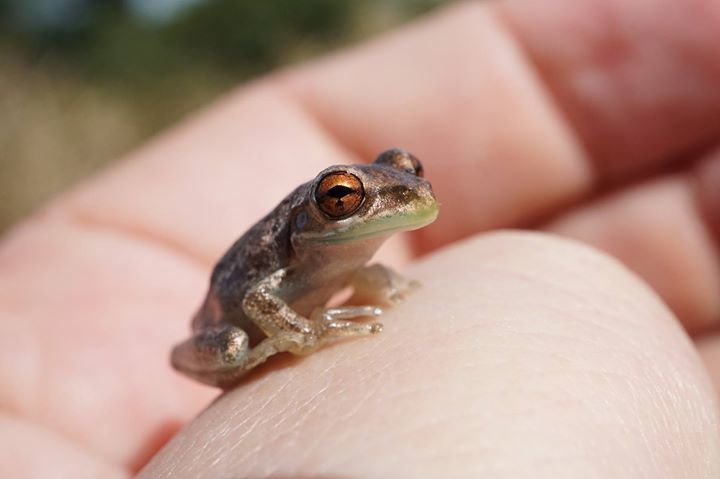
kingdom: Animalia
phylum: Chordata
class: Amphibia
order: Anura
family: Hylidae
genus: Osteopilus
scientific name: Osteopilus septentrionalis
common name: Cuban treefrog
